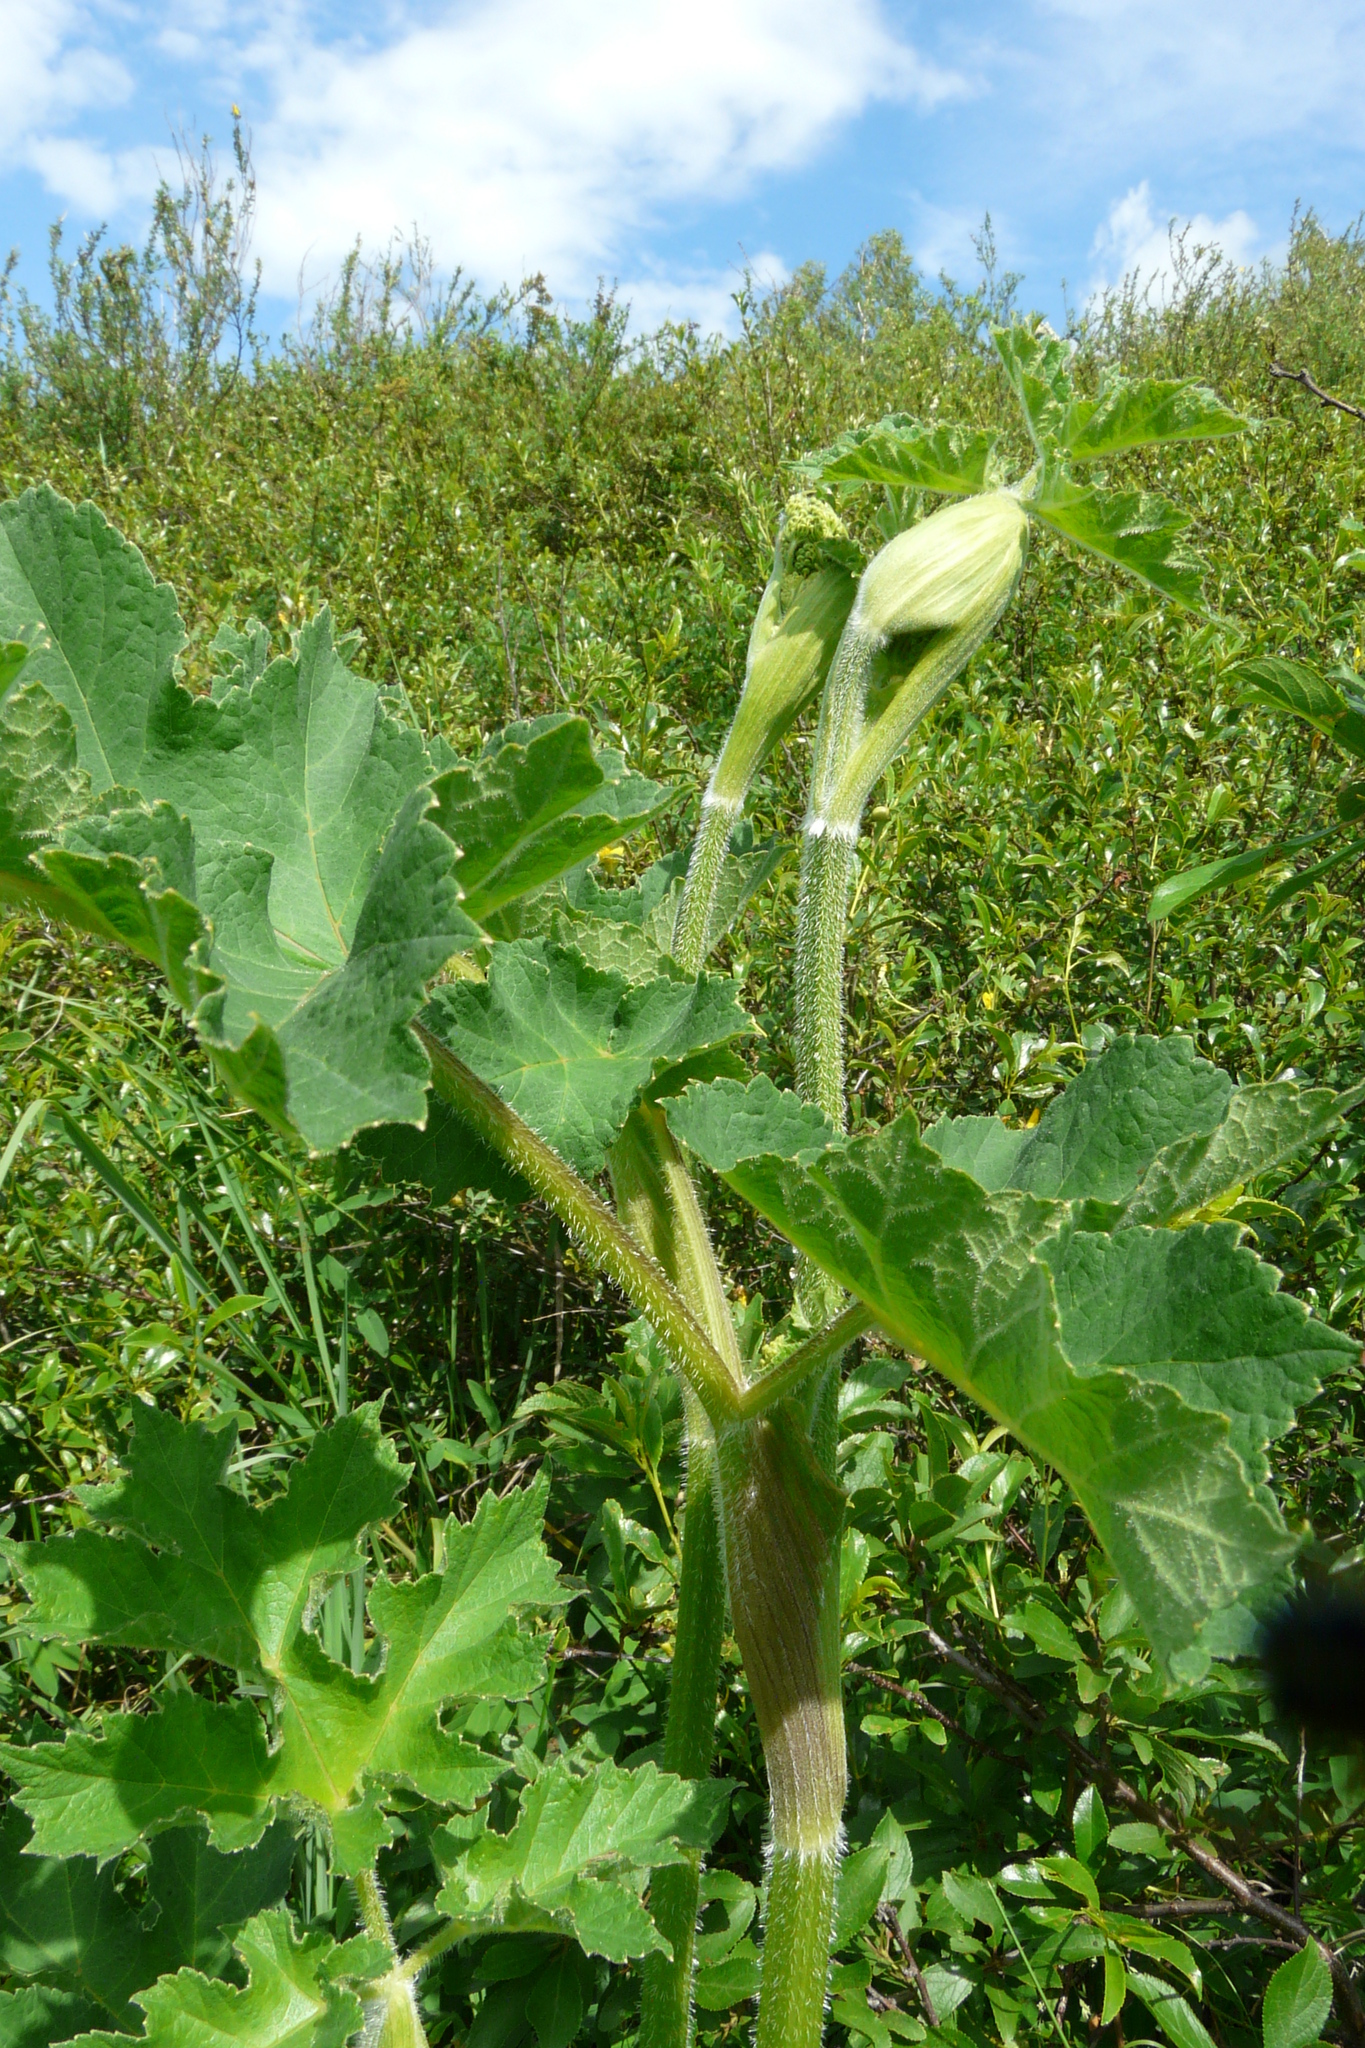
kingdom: Plantae
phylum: Tracheophyta
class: Magnoliopsida
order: Apiales
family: Apiaceae
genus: Heracleum
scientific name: Heracleum sphondylium
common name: Hogweed
